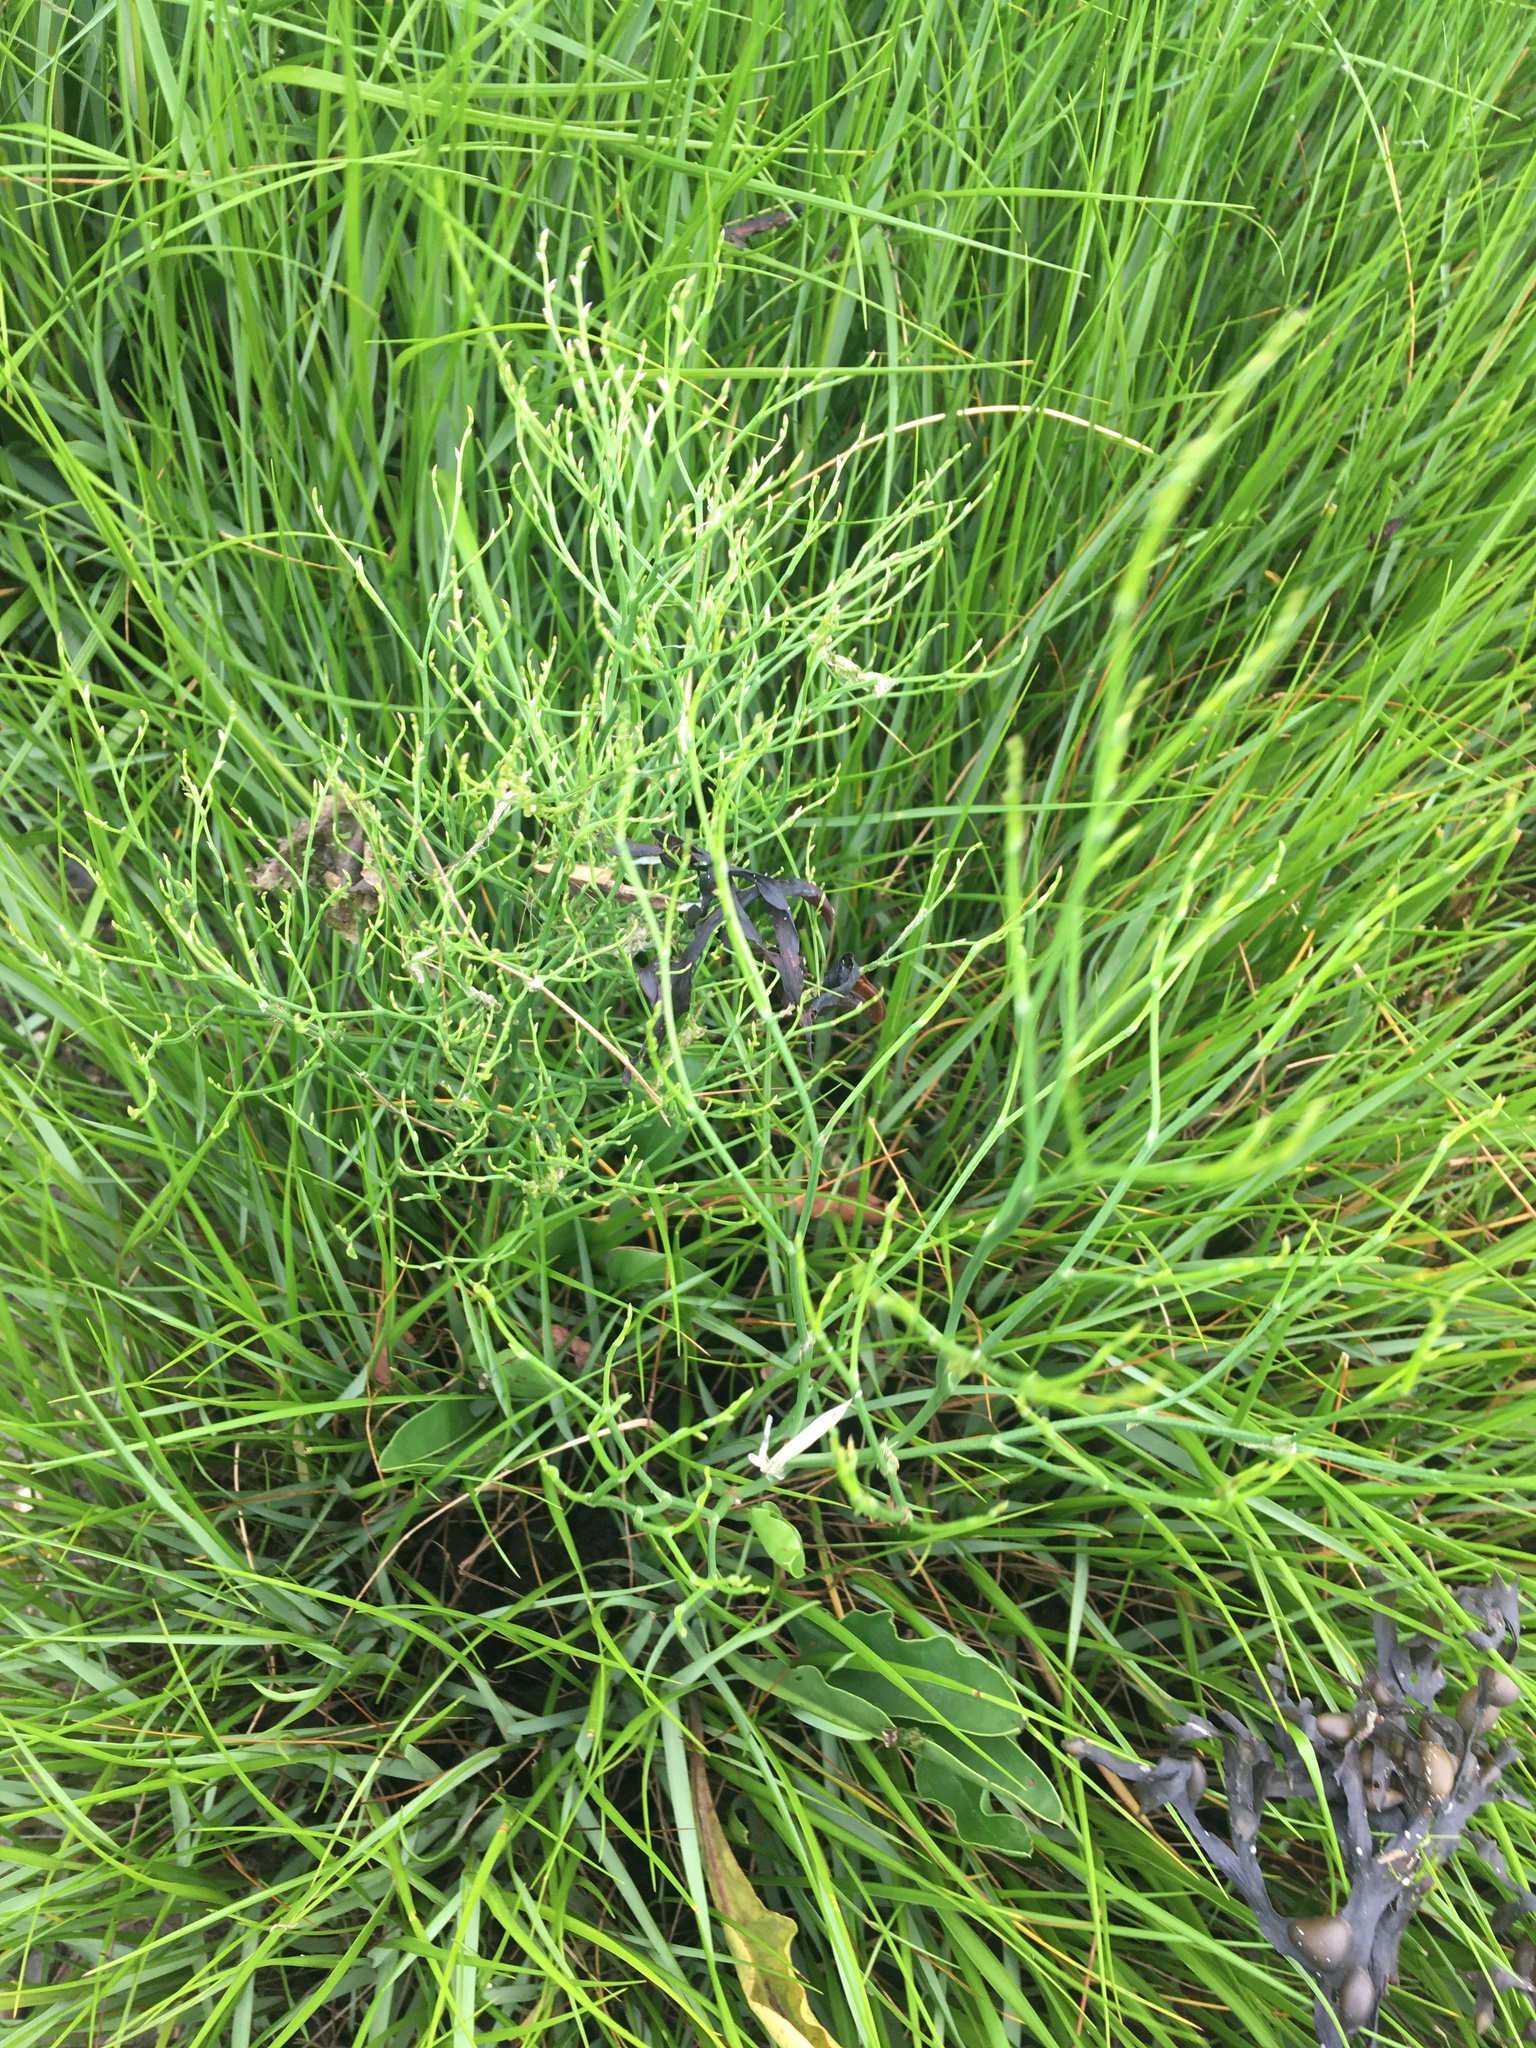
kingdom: Plantae
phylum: Tracheophyta
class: Magnoliopsida
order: Caryophyllales
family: Plumbaginaceae
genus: Limonium
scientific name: Limonium carolinianum
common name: Carolina sea lavender
